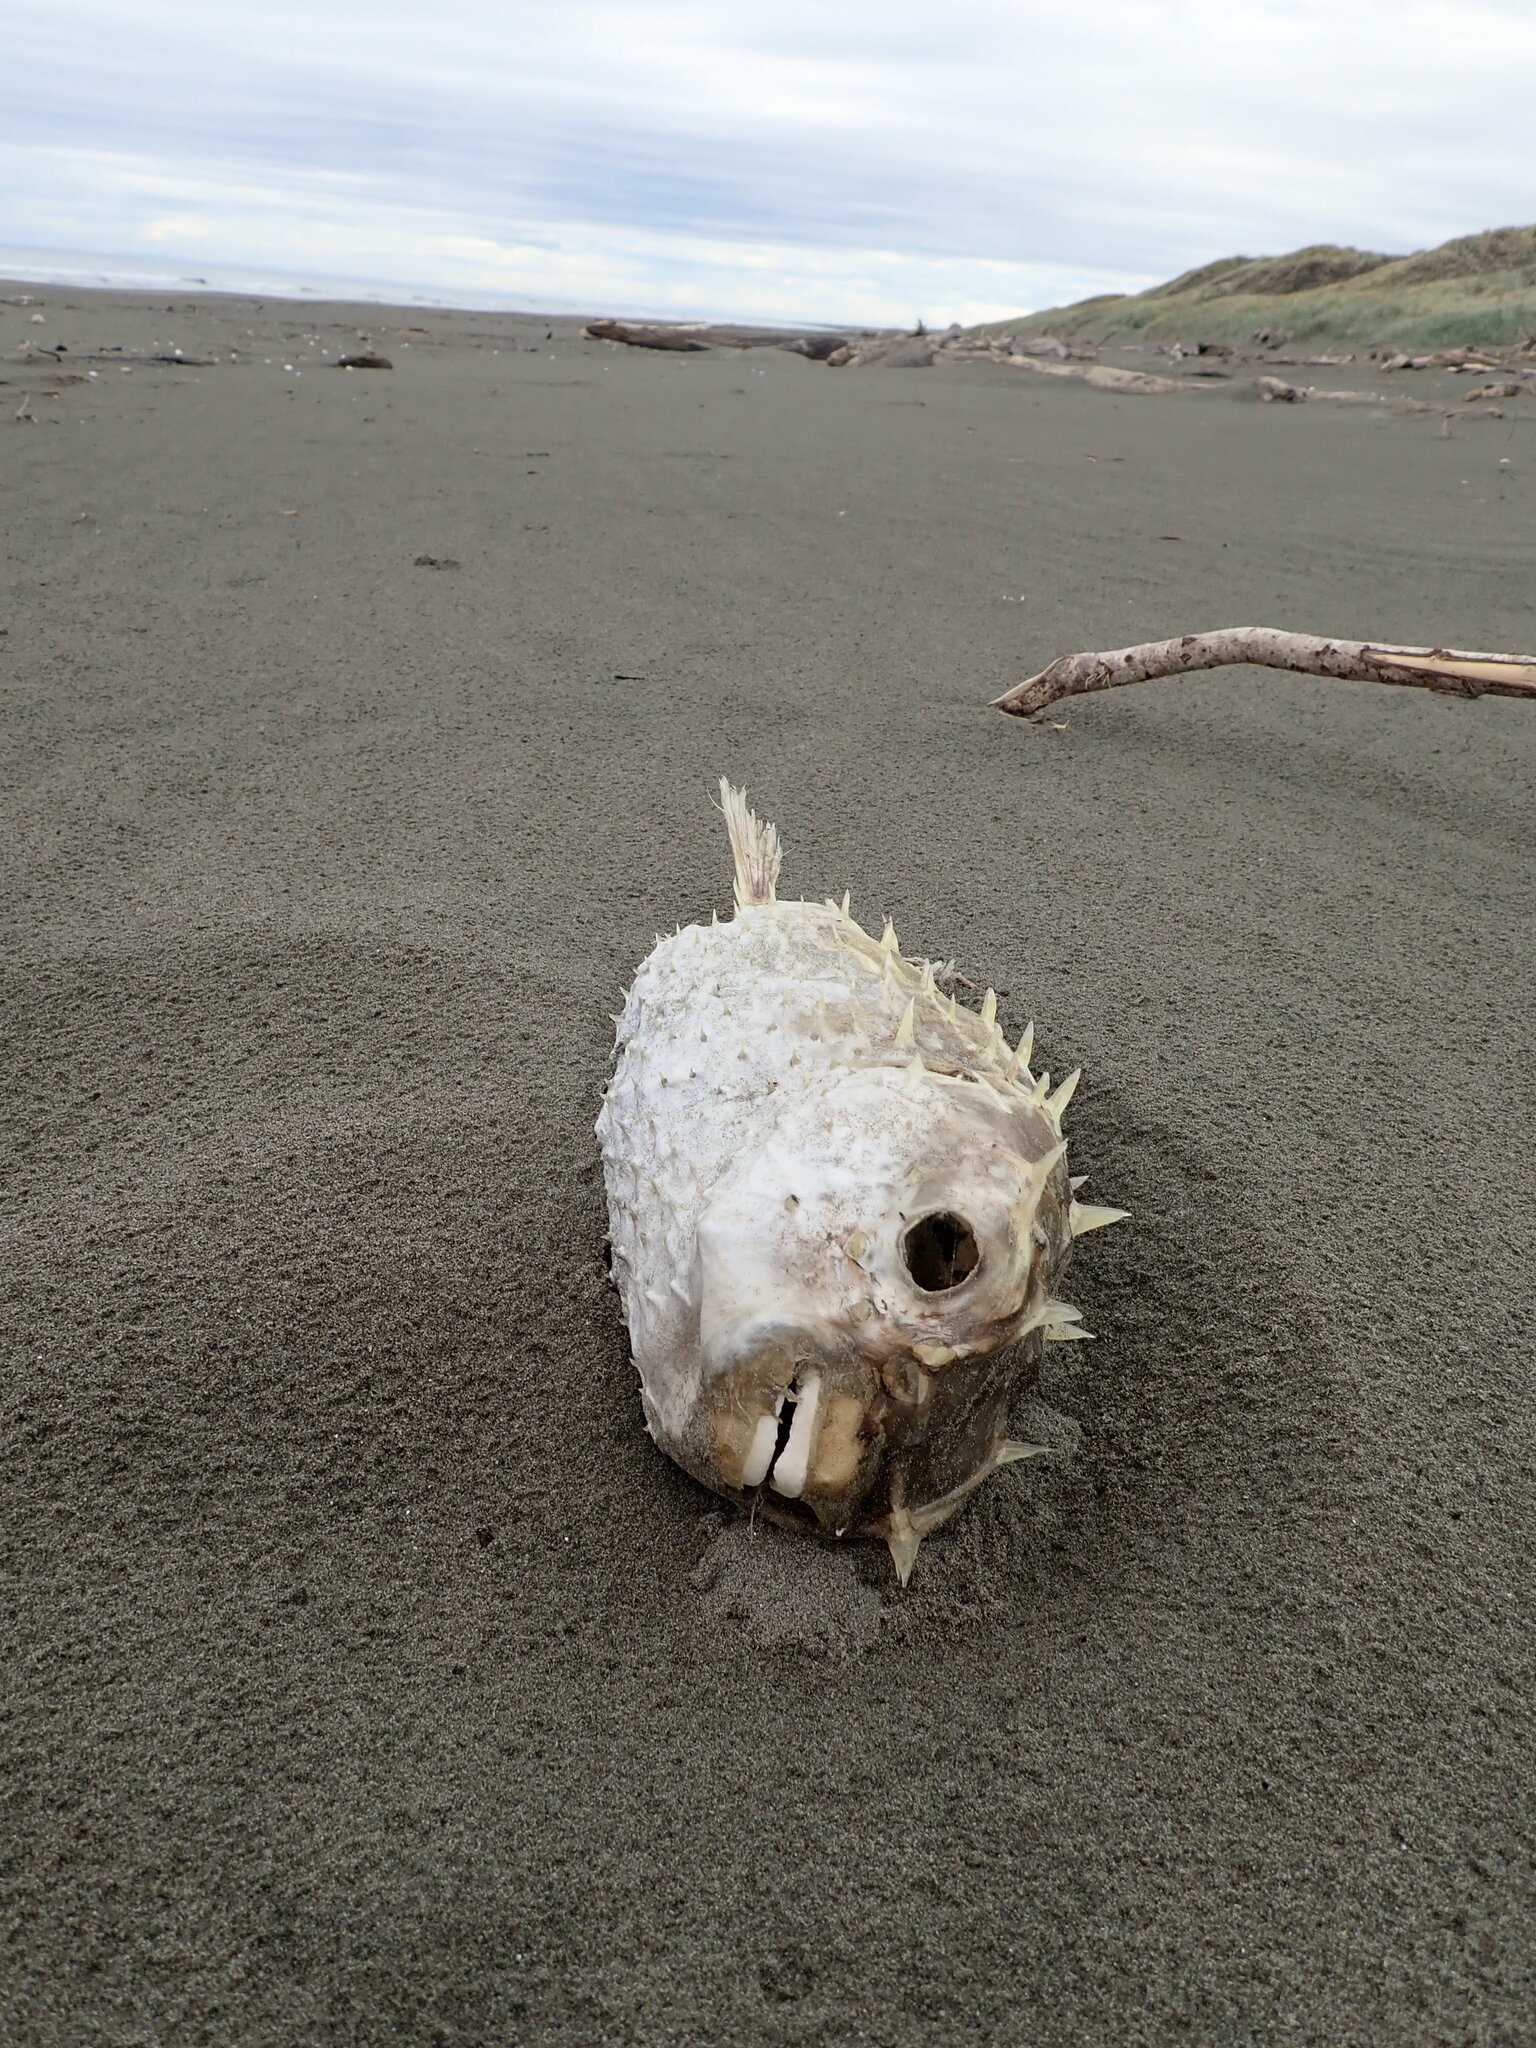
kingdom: Animalia
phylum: Chordata
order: Tetraodontiformes
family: Diodontidae
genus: Allomycterus
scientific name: Allomycterus pilatus
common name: No common name
